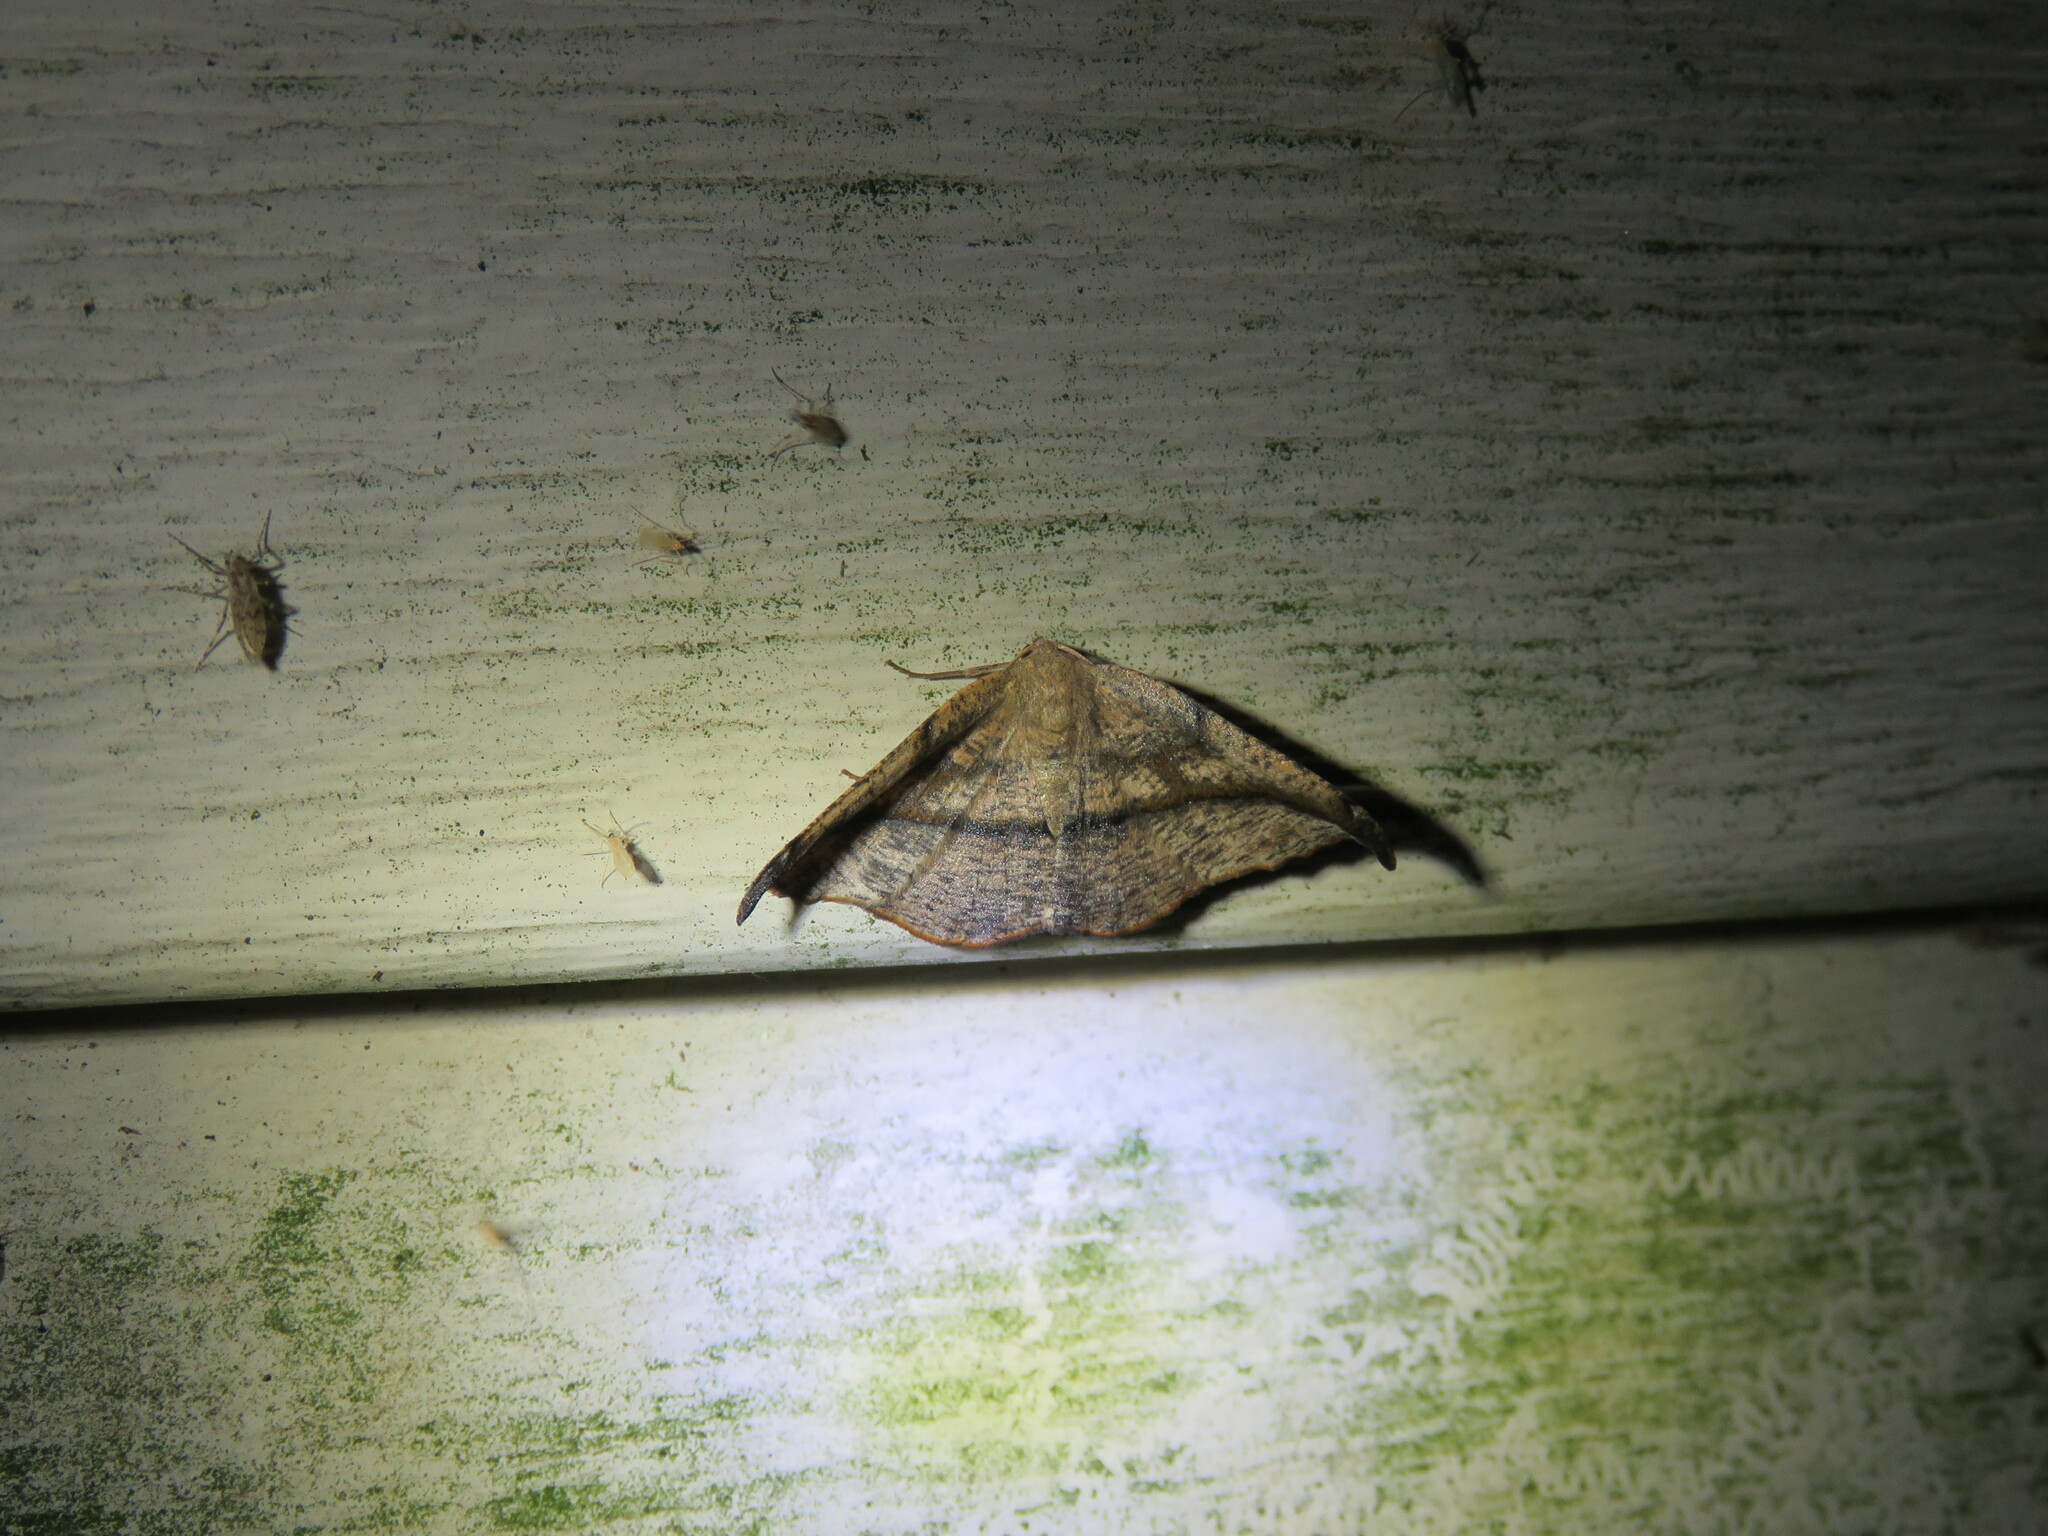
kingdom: Animalia
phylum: Arthropoda
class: Insecta
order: Lepidoptera
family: Geometridae
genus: Patalene
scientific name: Patalene olyzonaria
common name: Juniper geometer moth
